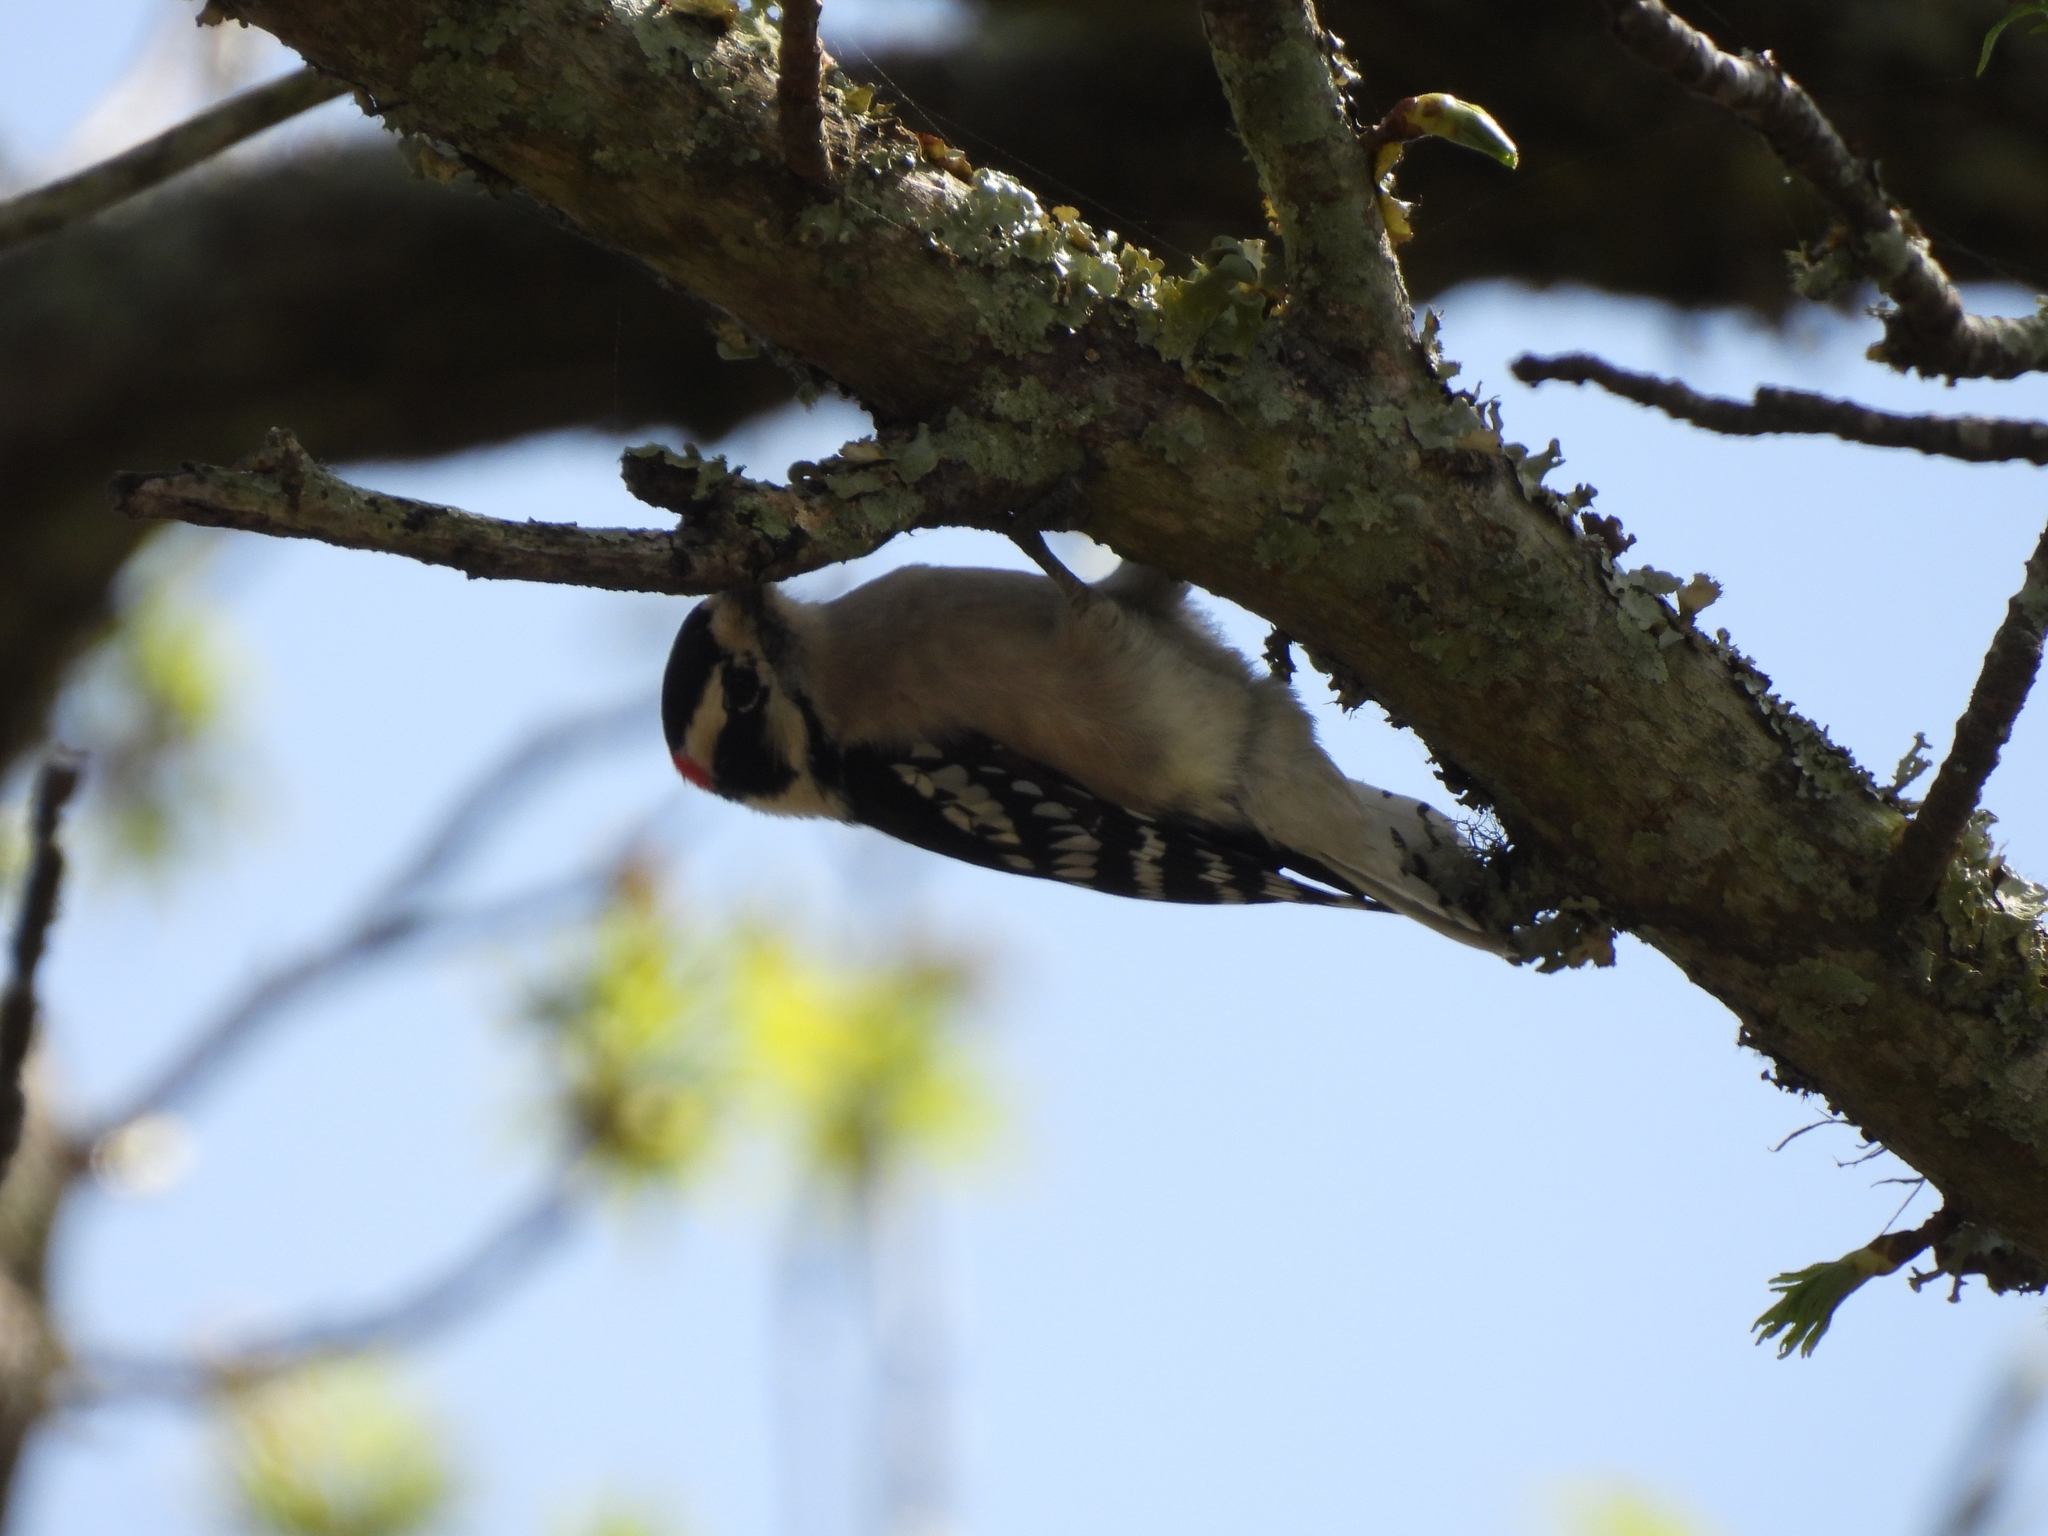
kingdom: Animalia
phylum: Chordata
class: Aves
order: Piciformes
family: Picidae
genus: Dryobates
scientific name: Dryobates pubescens
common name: Downy woodpecker
